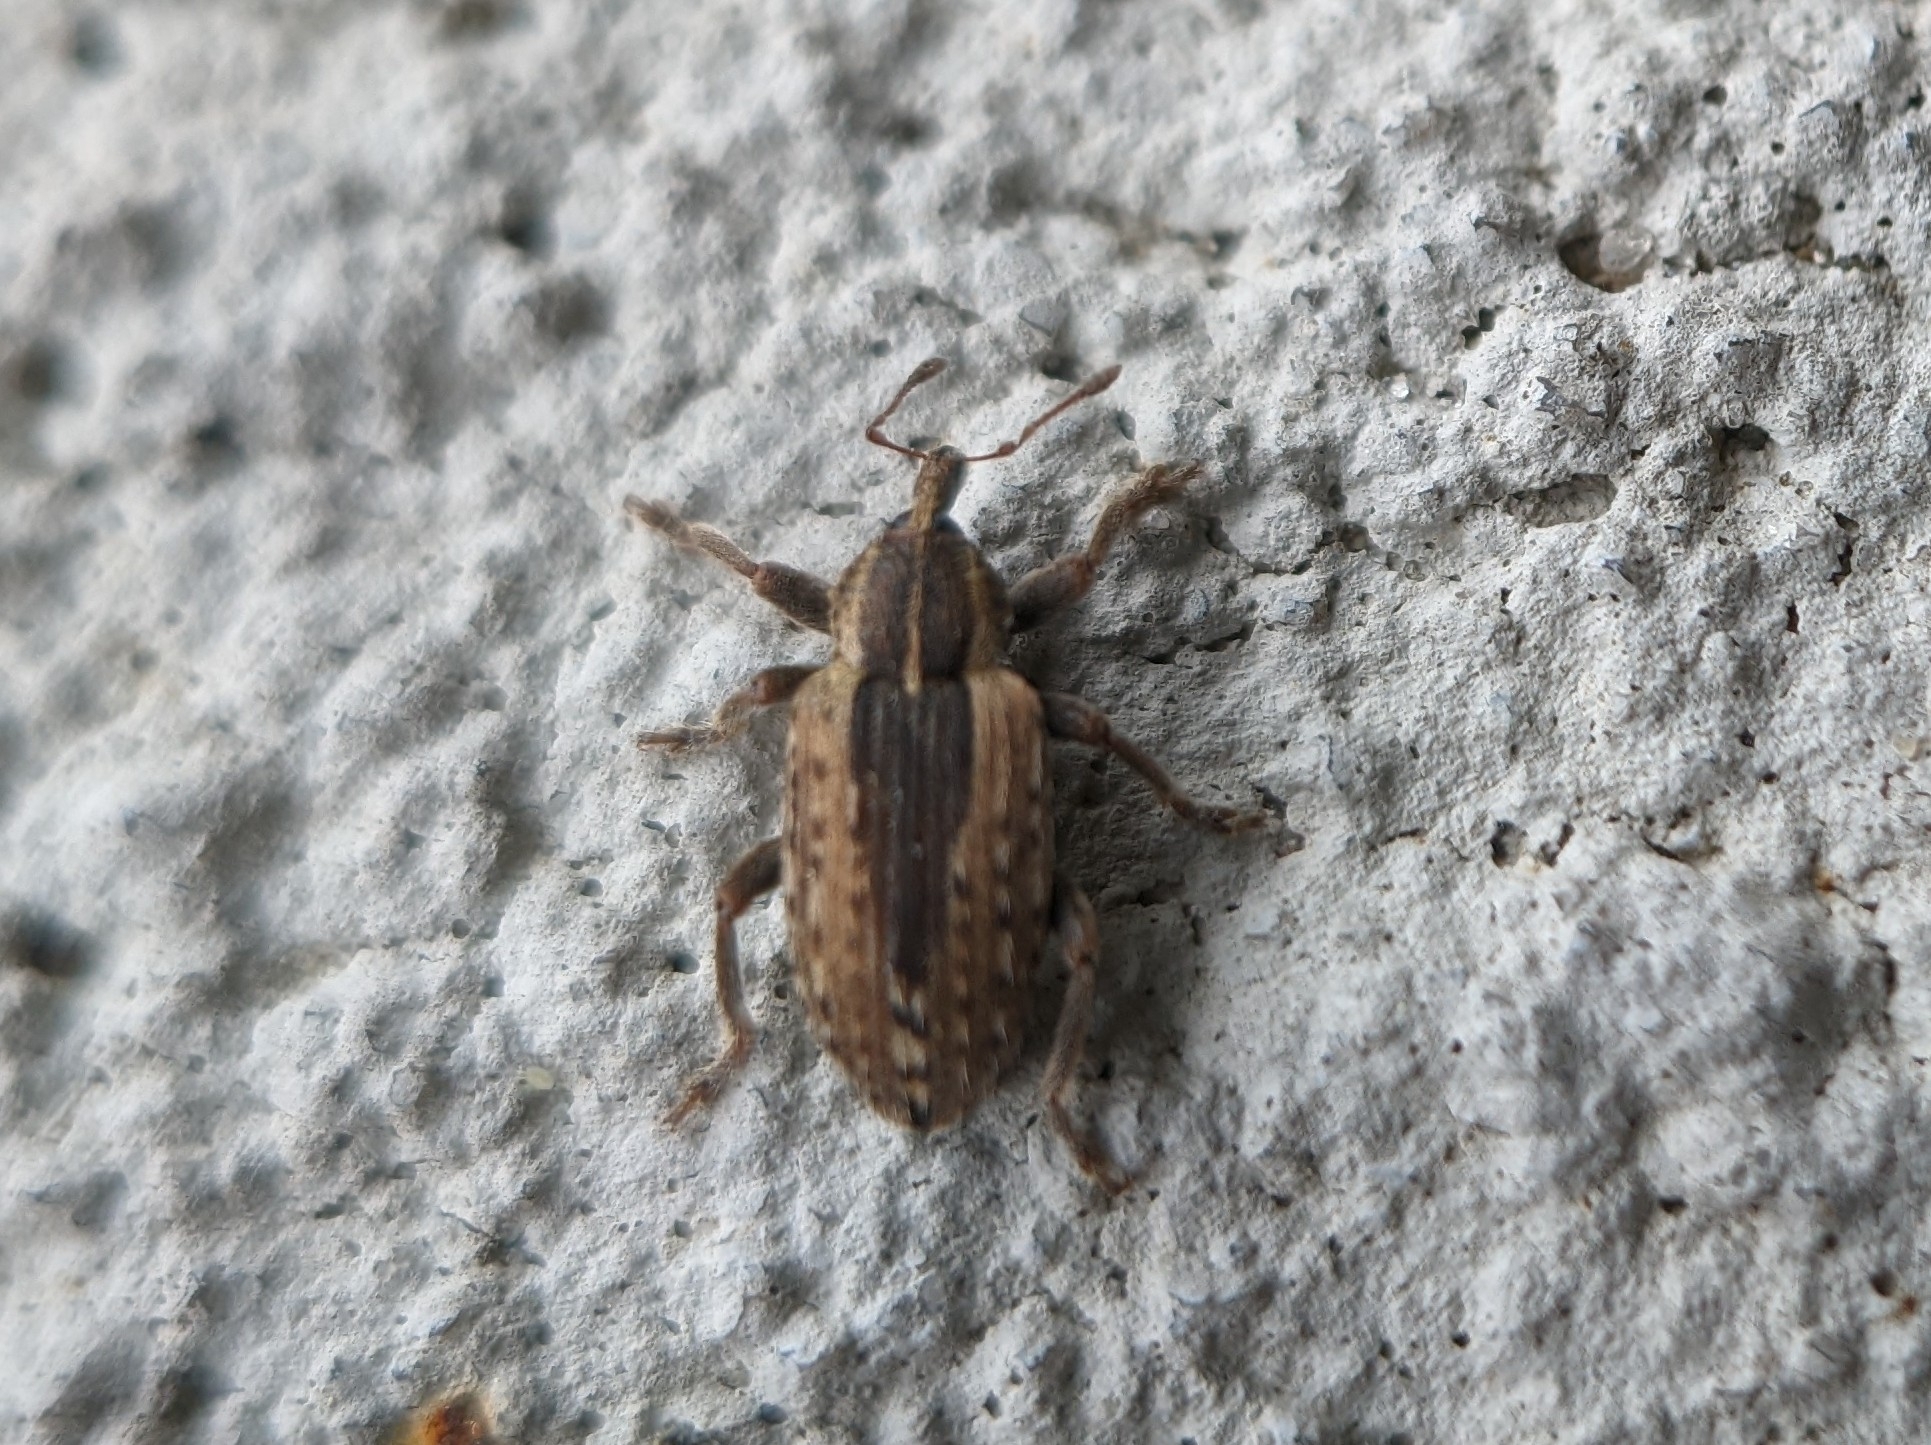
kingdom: Animalia
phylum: Arthropoda
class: Insecta
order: Coleoptera
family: Curculionidae
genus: Hypera
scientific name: Hypera postica
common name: Weevil
